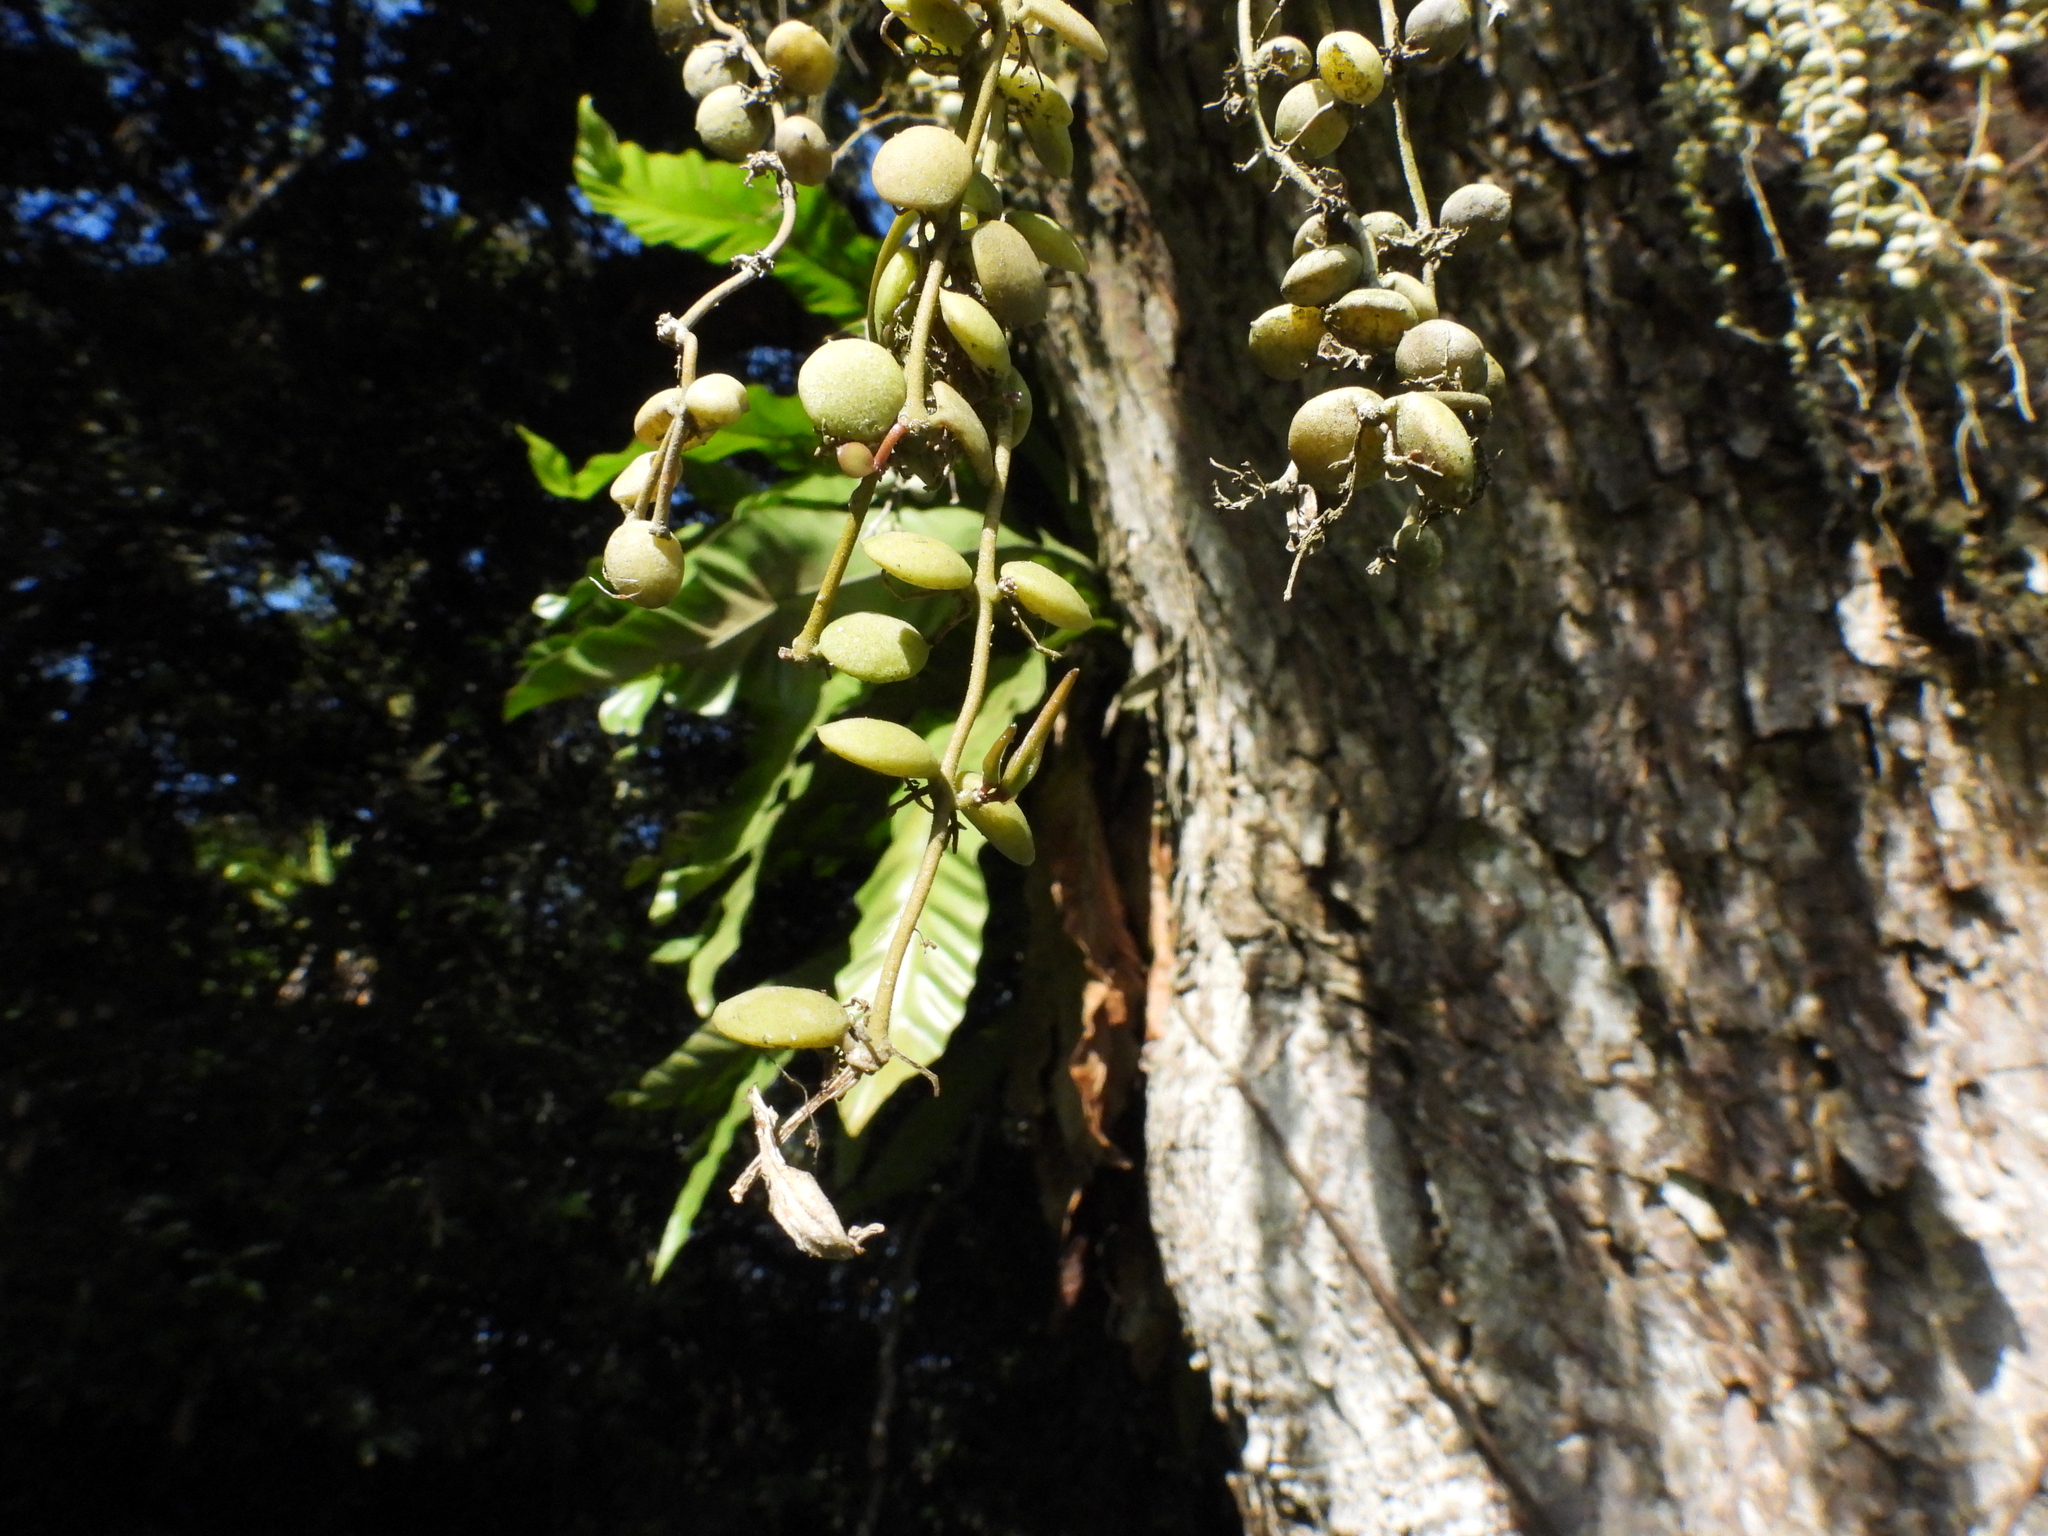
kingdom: Plantae
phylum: Tracheophyta
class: Magnoliopsida
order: Gentianales
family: Apocynaceae
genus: Dischidia
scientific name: Dischidia nummularia
